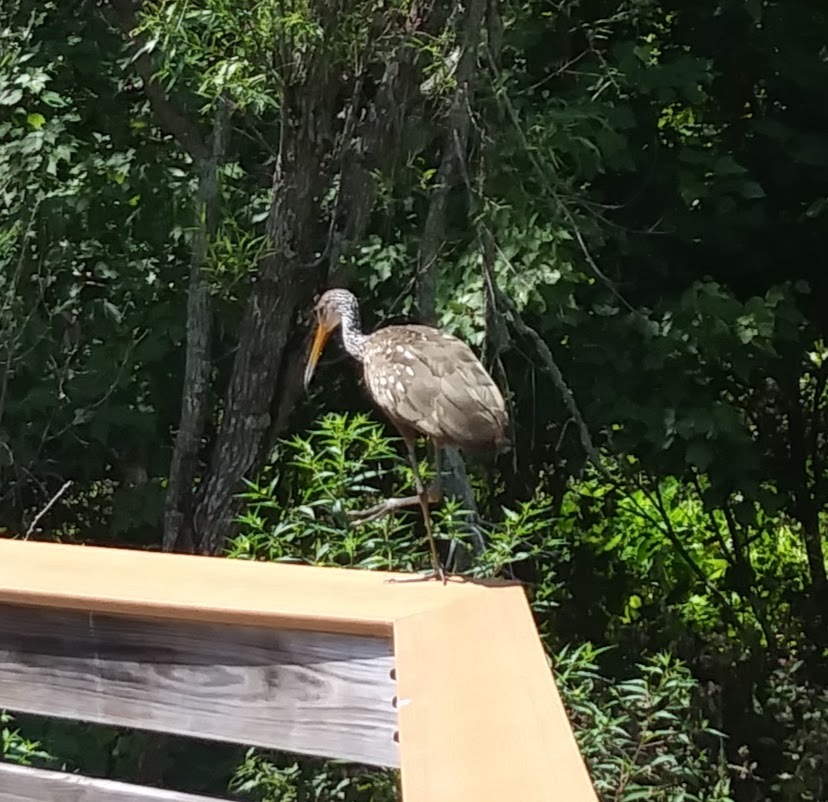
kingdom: Animalia
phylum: Chordata
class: Aves
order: Gruiformes
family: Aramidae
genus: Aramus
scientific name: Aramus guarauna
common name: Limpkin
